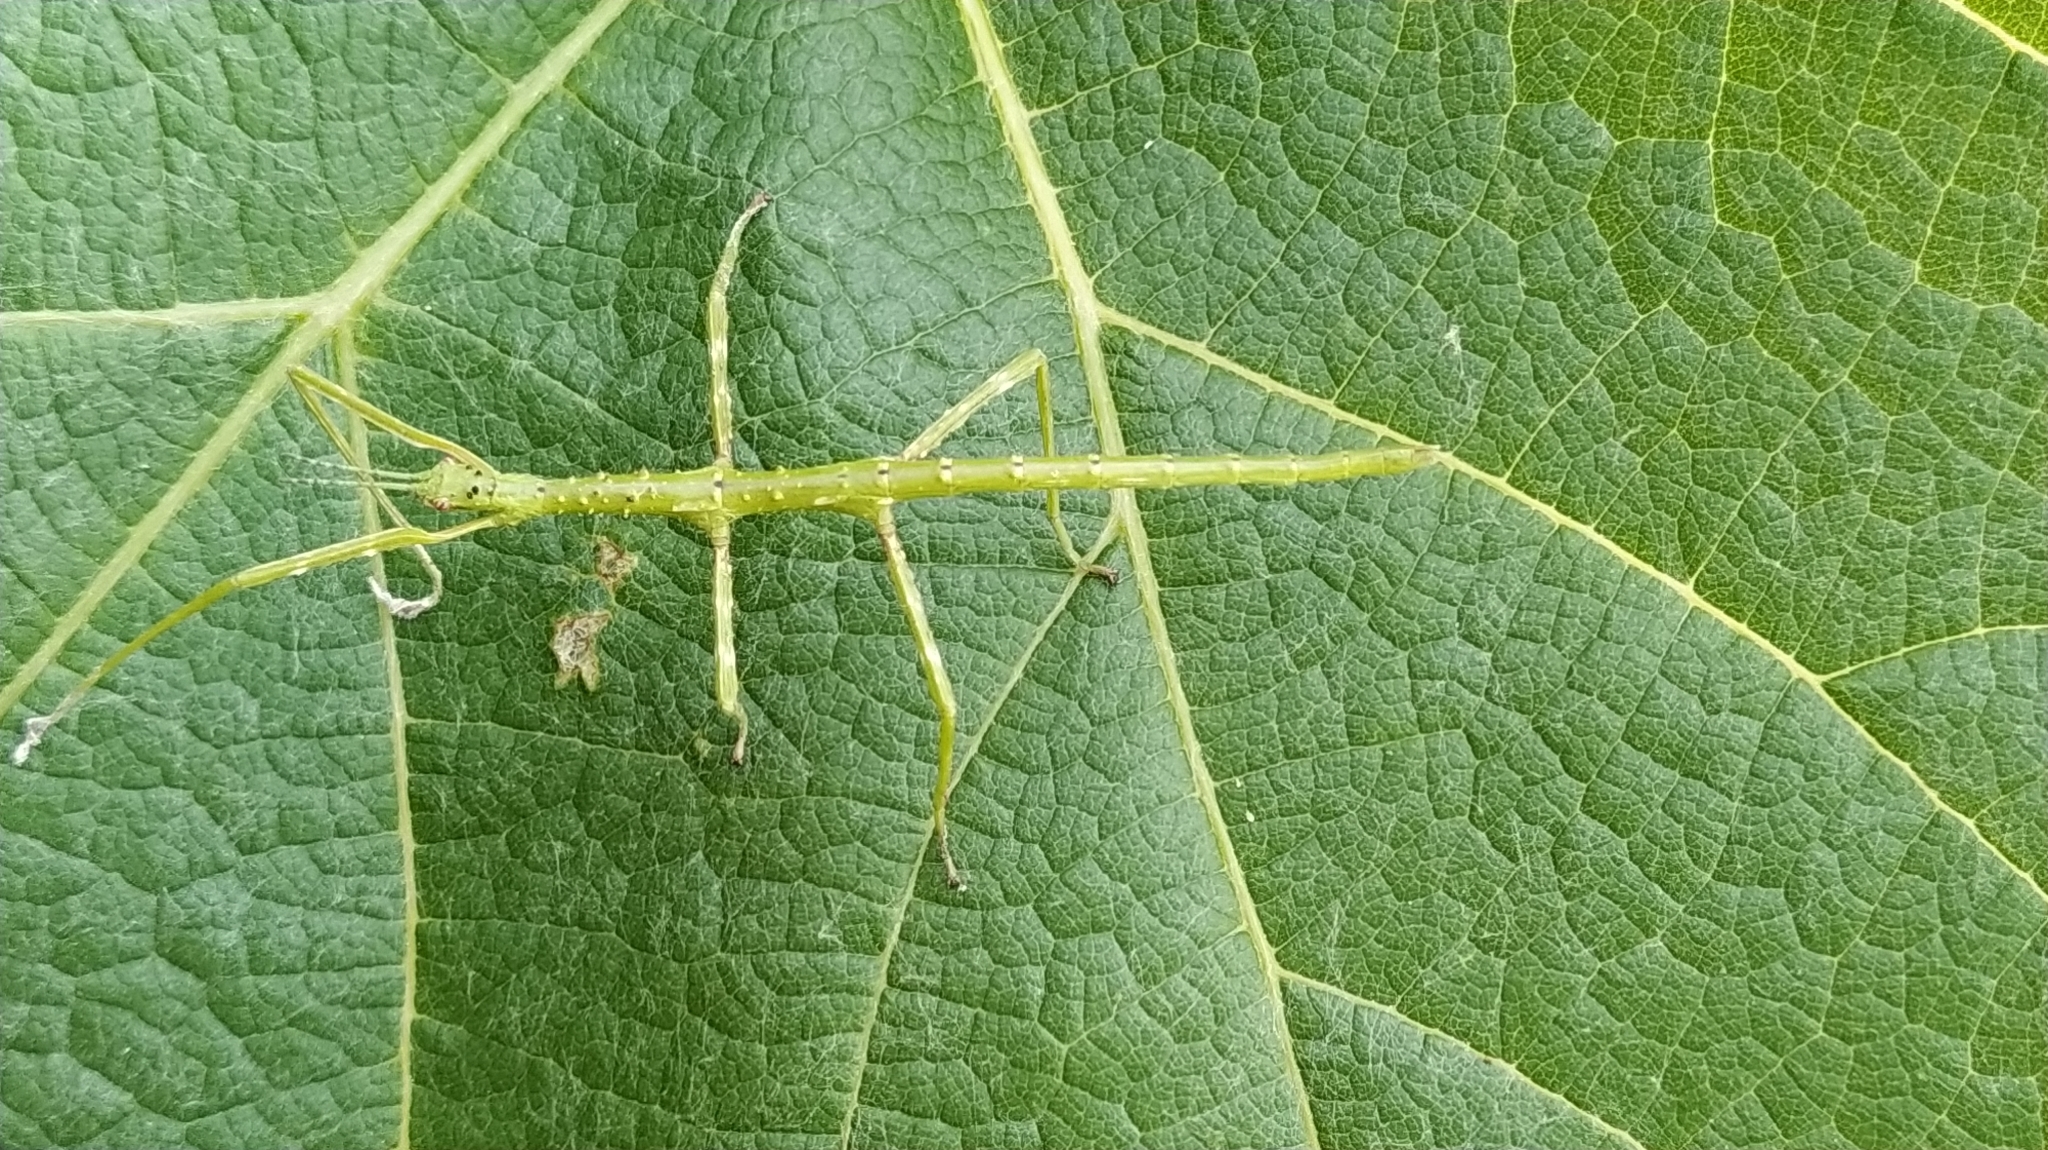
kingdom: Animalia
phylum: Arthropoda
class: Insecta
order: Phasmida
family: Phasmatidae
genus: Acanthoxyla
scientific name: Acanthoxyla prasina
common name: Black-spined stick insect
